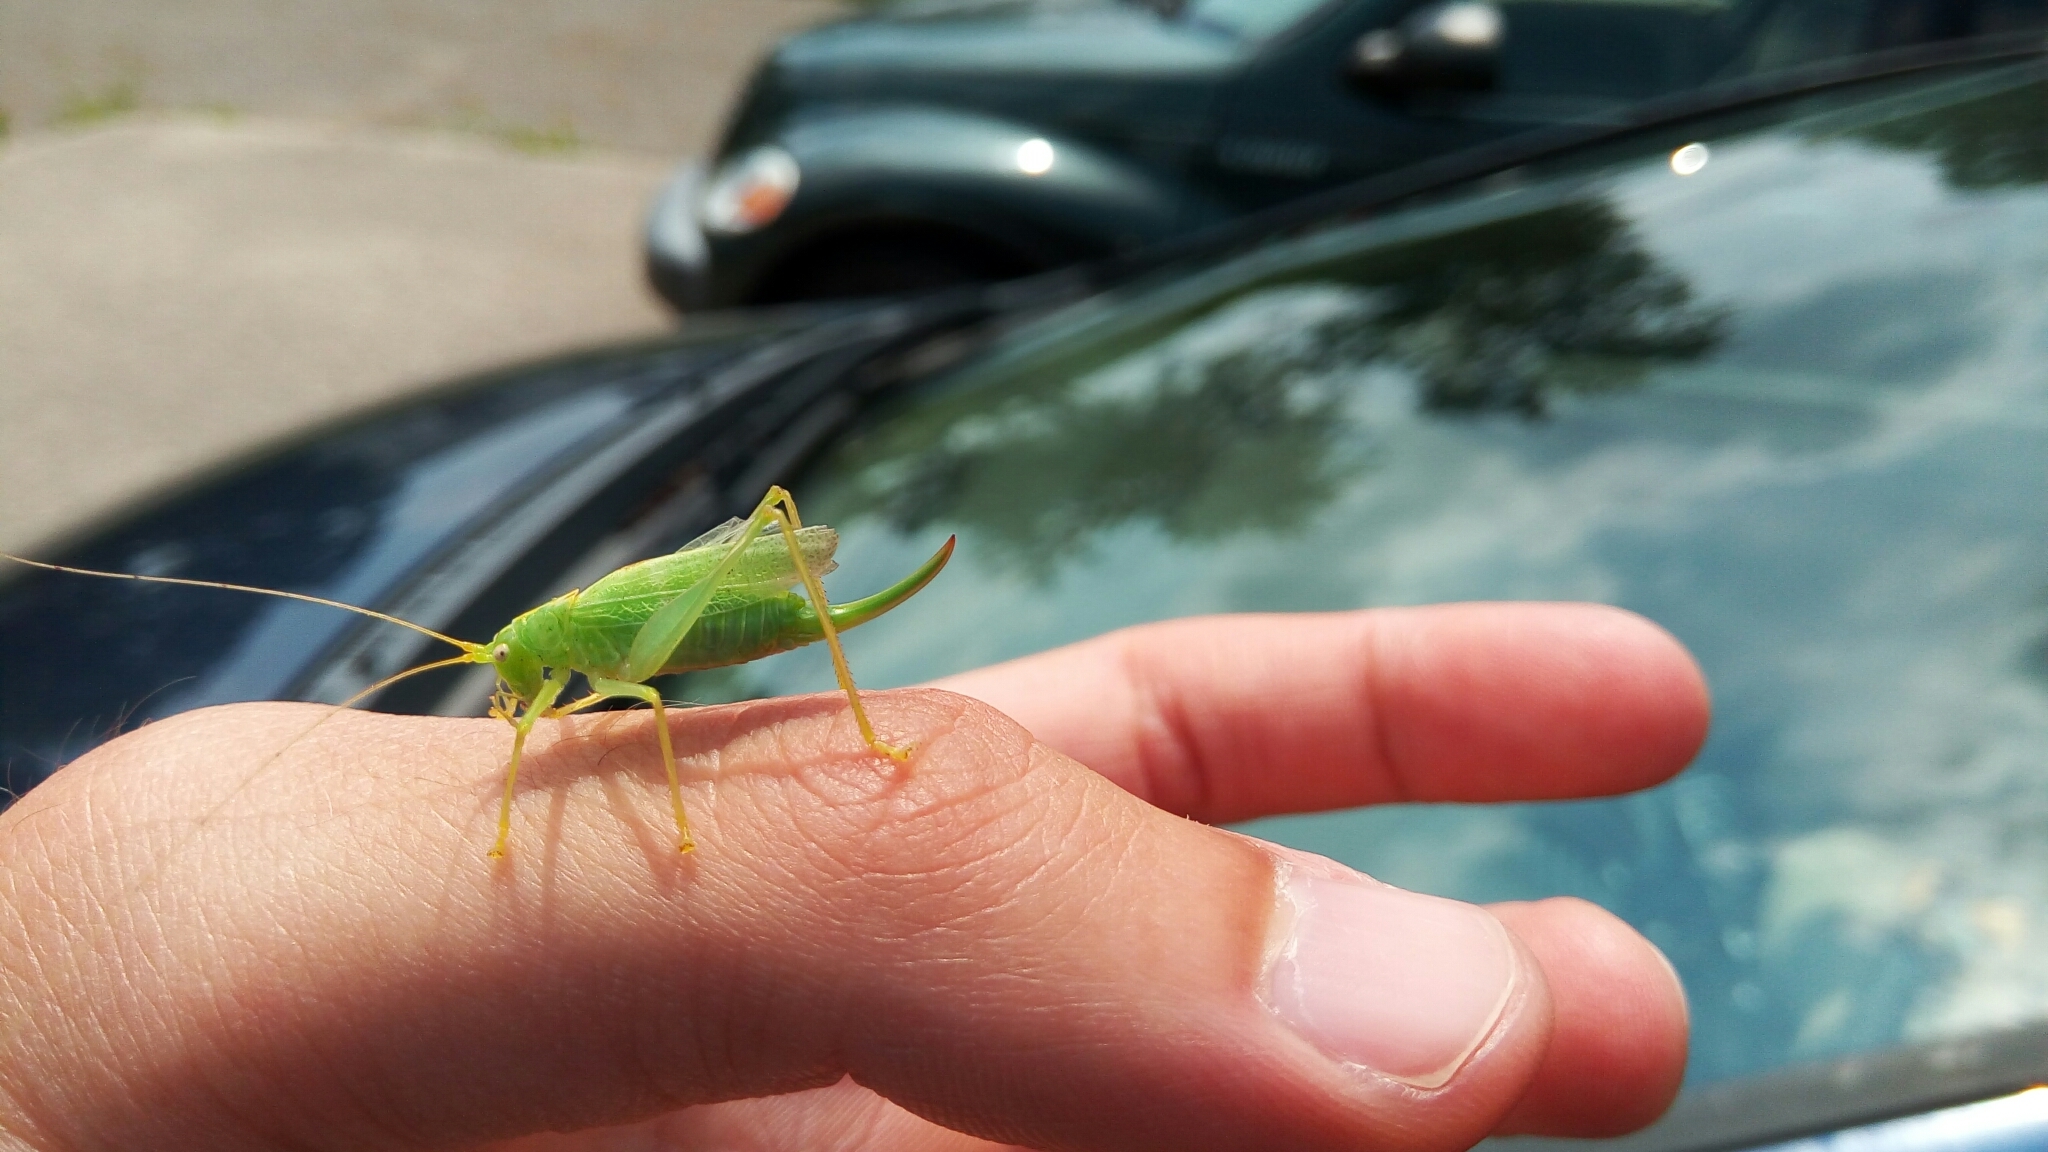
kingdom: Animalia
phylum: Arthropoda
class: Insecta
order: Orthoptera
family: Tettigoniidae
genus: Meconema
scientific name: Meconema thalassinum
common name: Oak bush-cricket
